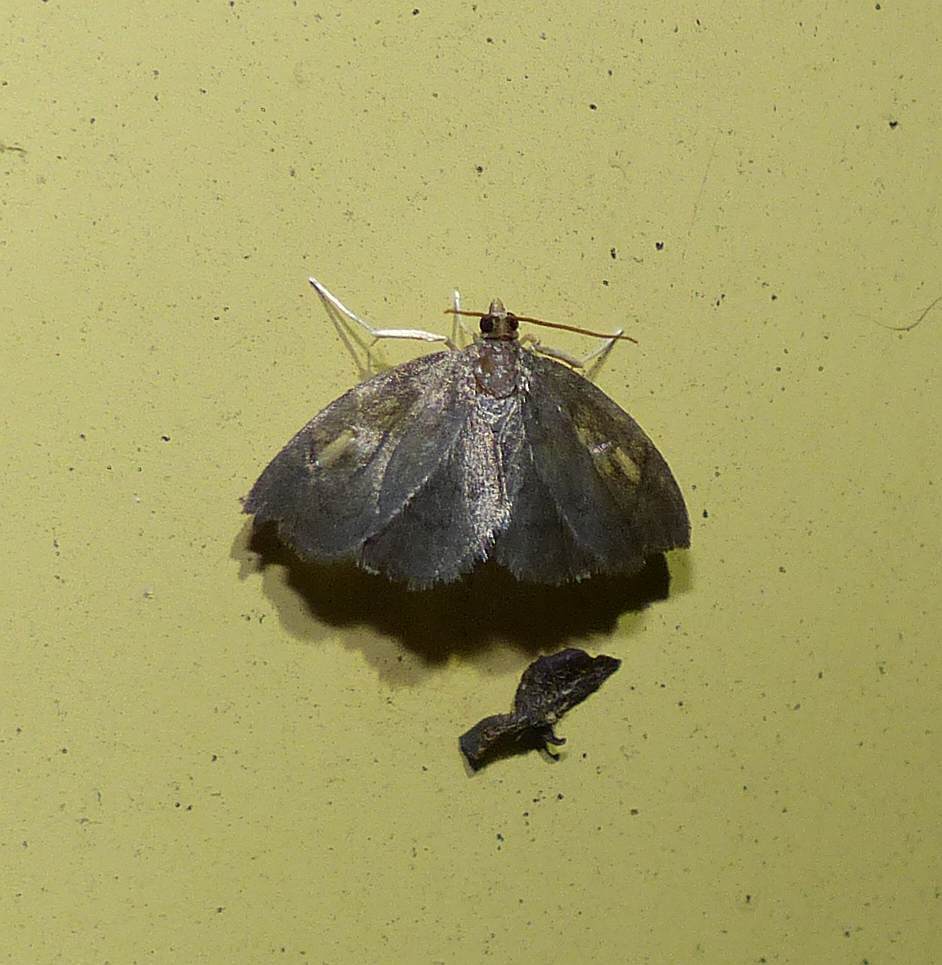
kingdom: Animalia
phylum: Arthropoda
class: Insecta
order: Lepidoptera
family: Crambidae
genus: Perispasta
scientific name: Perispasta caeculalis
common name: Titian peale's moth
